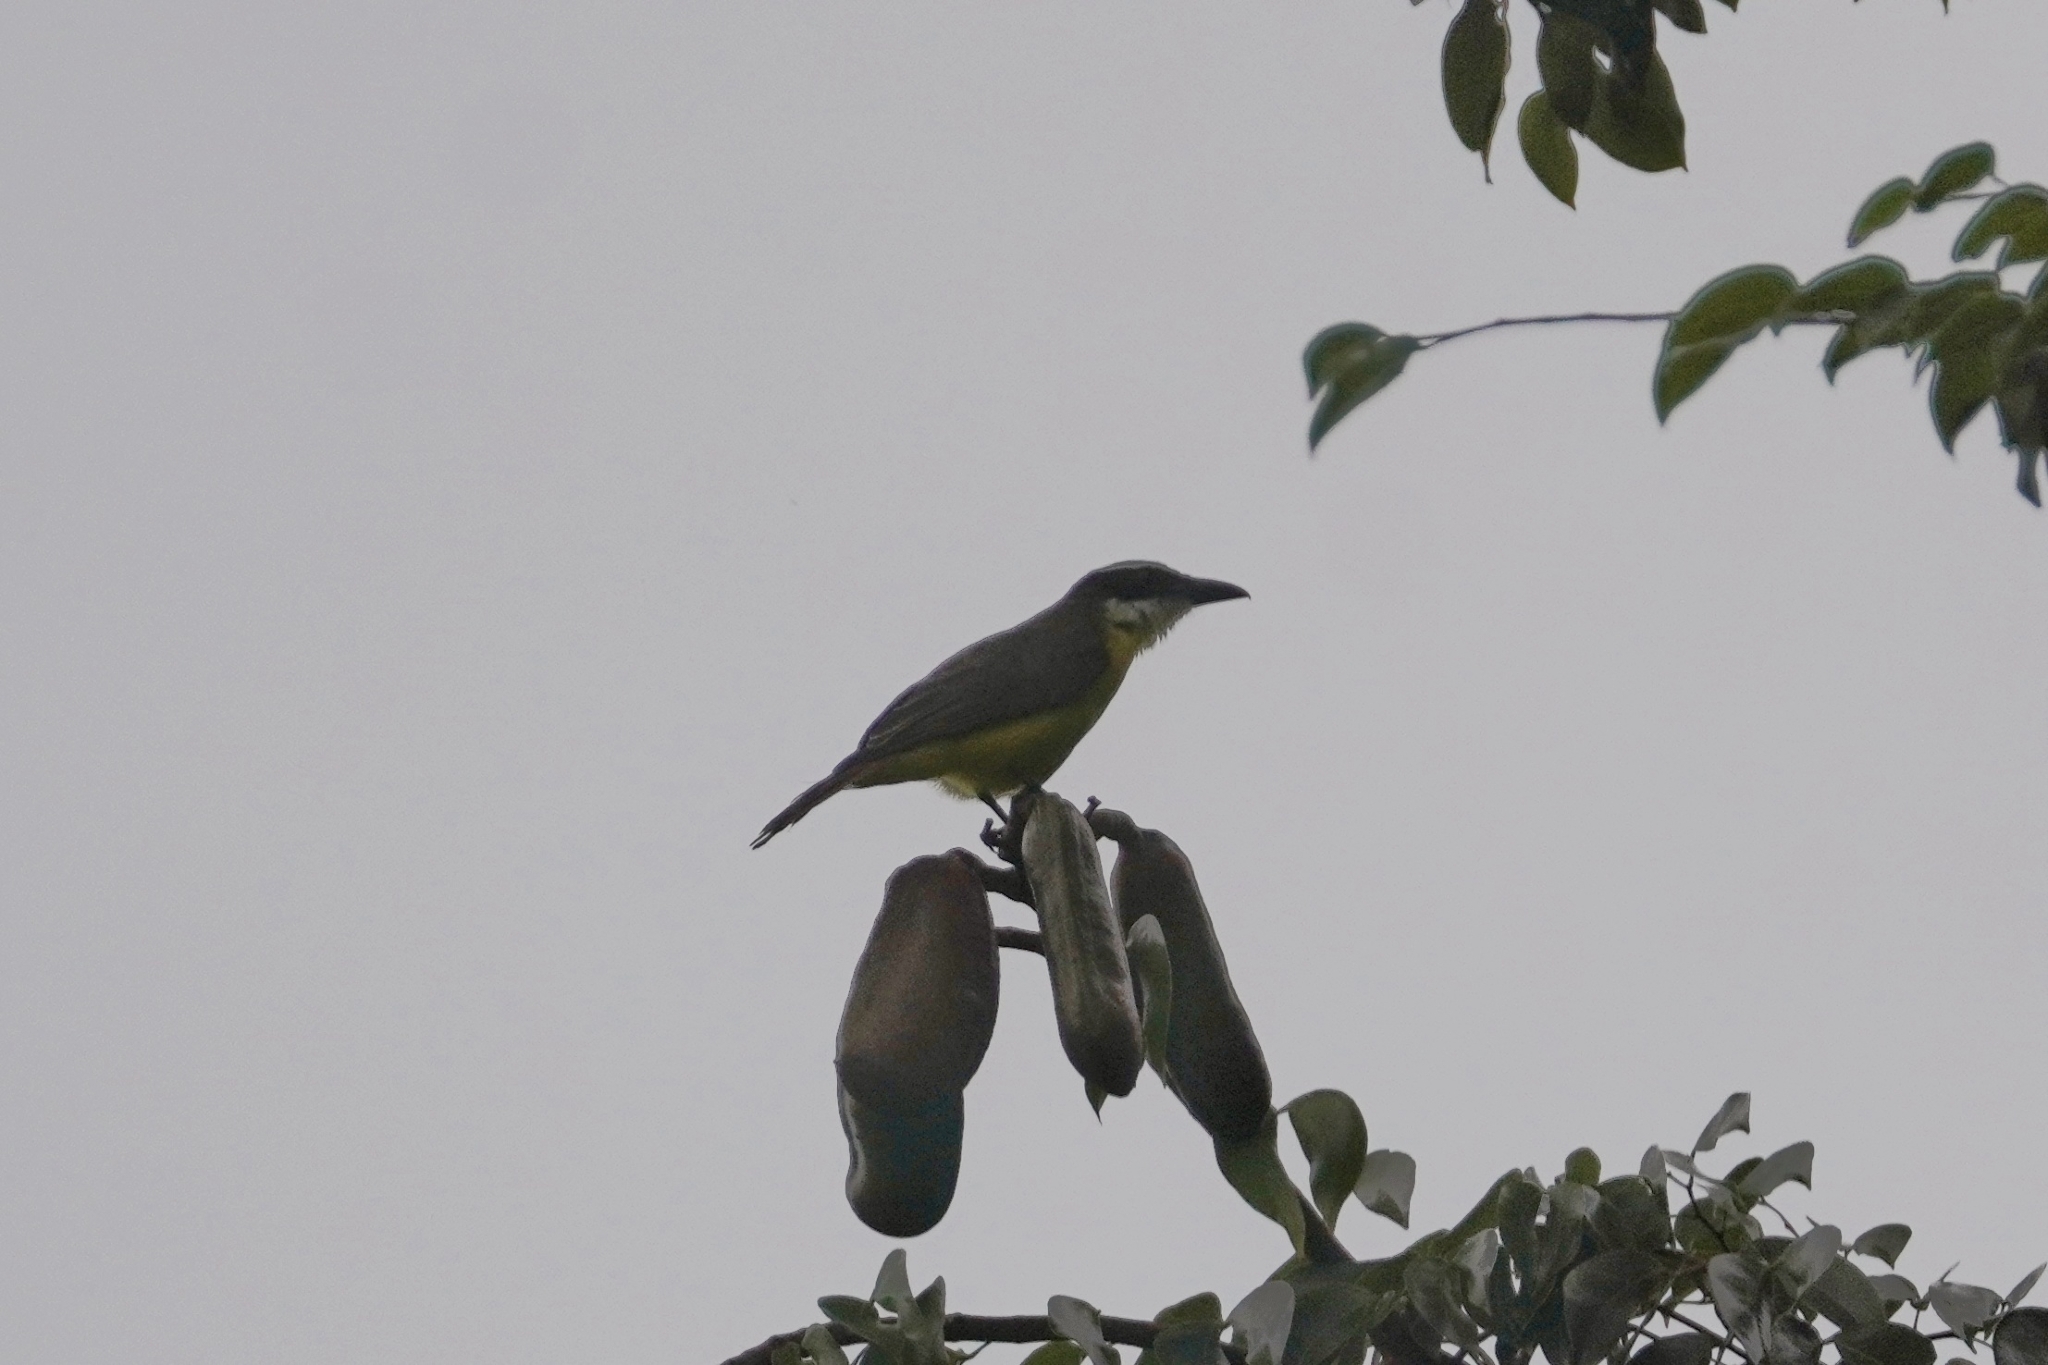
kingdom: Animalia
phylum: Chordata
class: Aves
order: Passeriformes
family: Tyrannidae
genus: Megarynchus
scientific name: Megarynchus pitangua
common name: Boat-billed flycatcher
